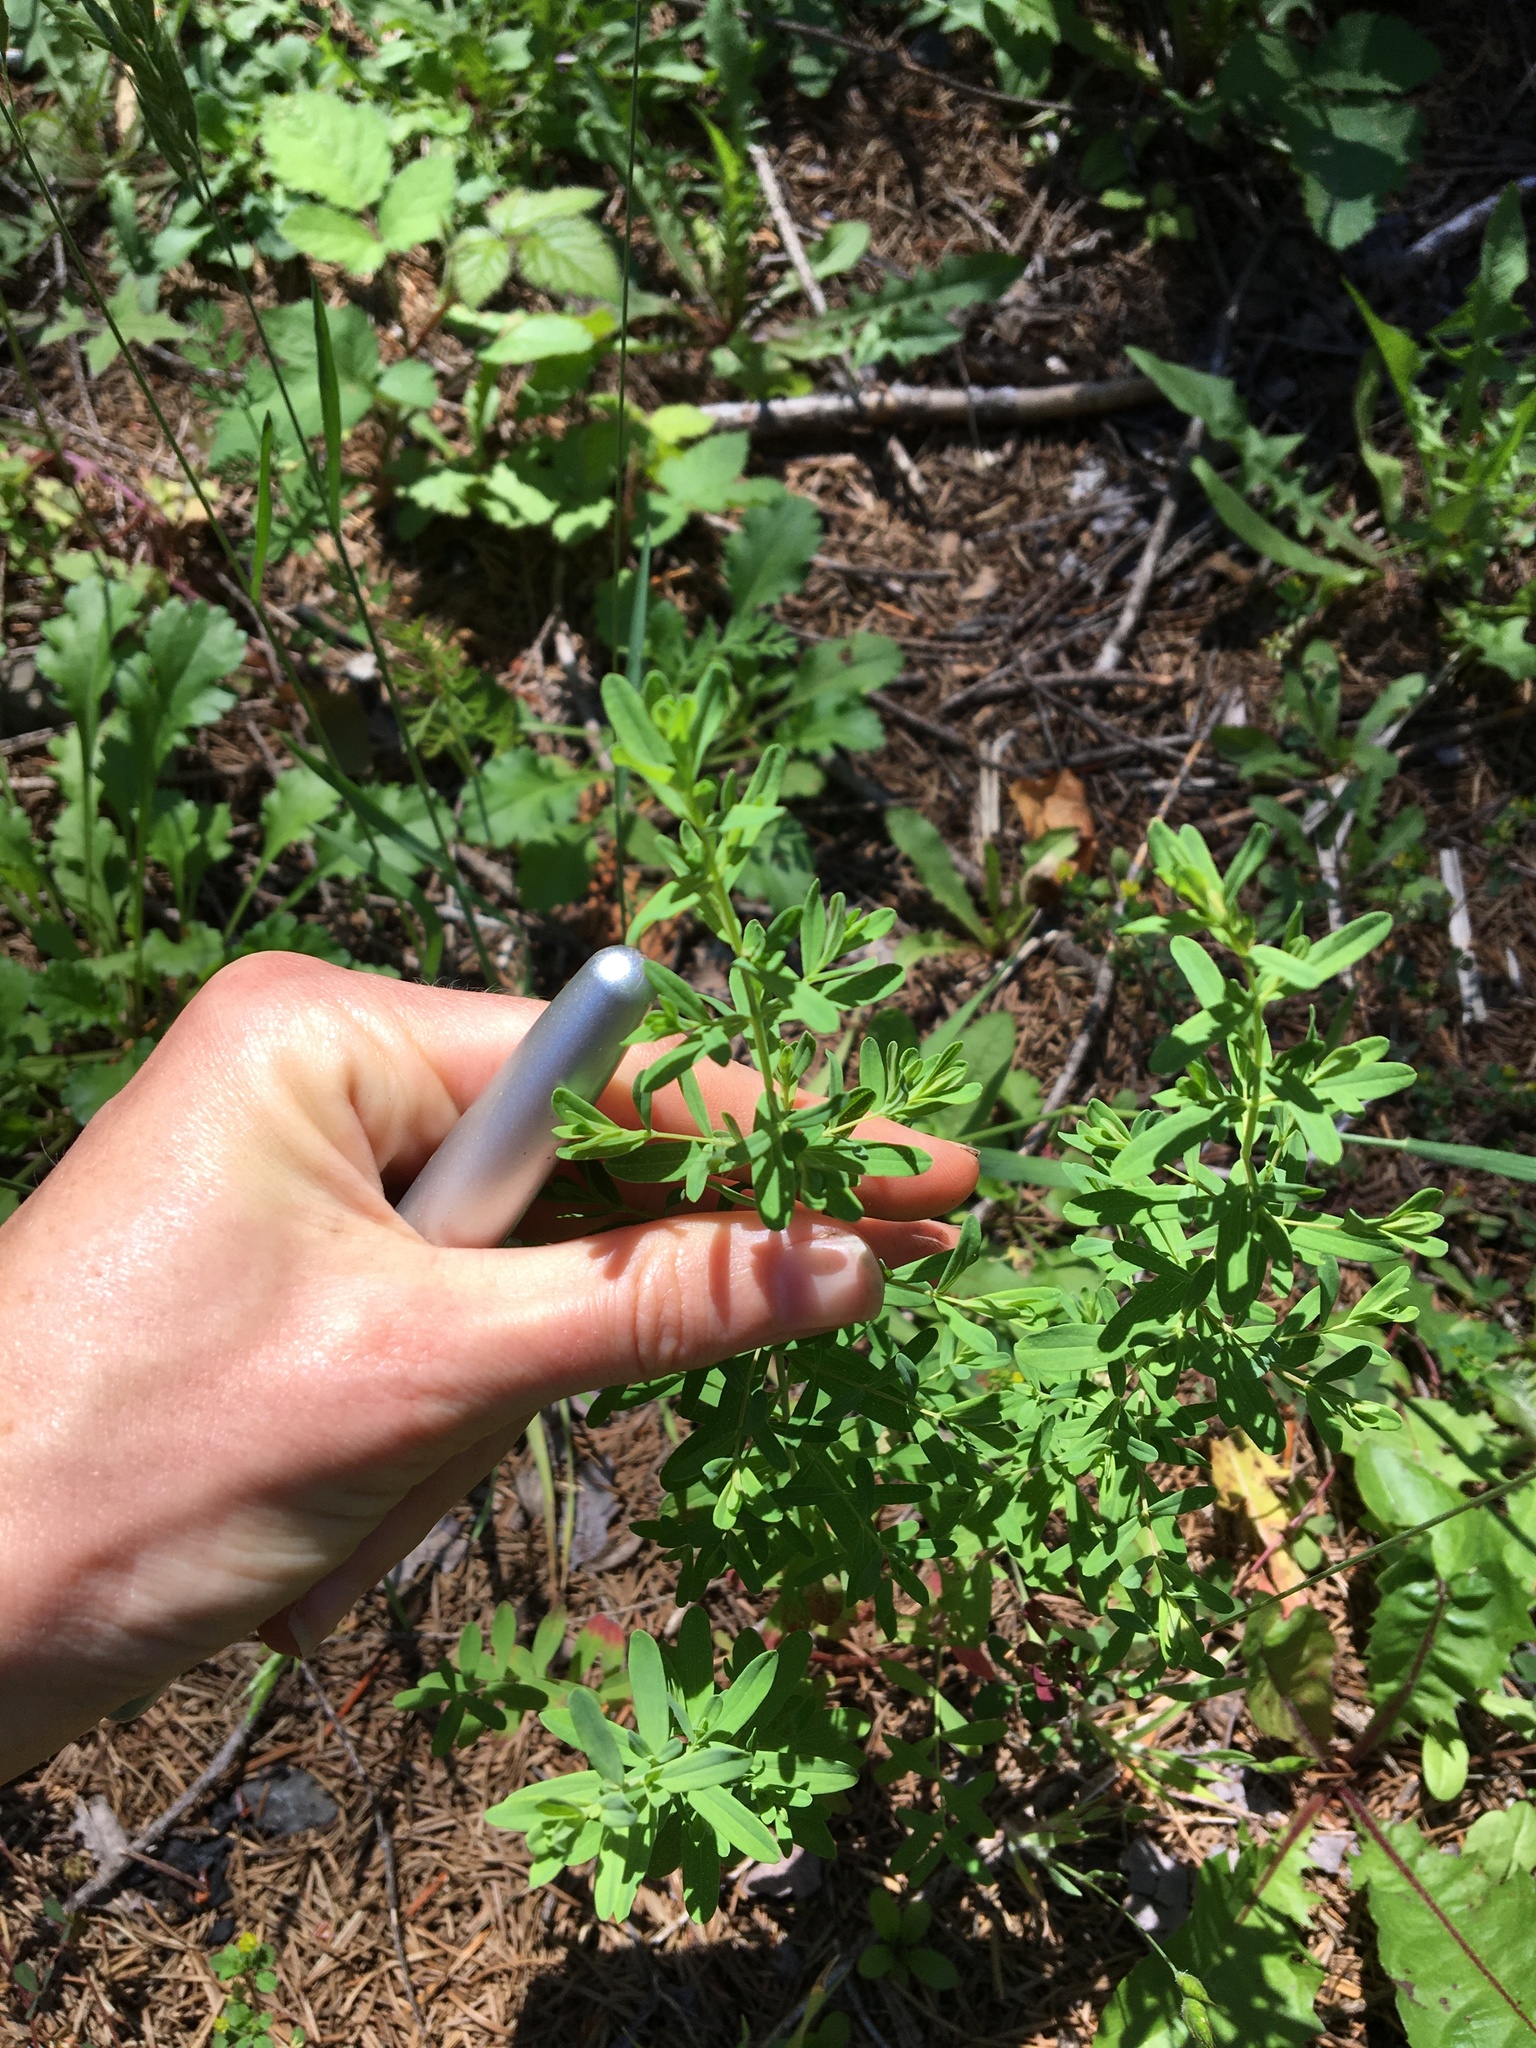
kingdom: Plantae
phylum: Tracheophyta
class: Magnoliopsida
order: Malpighiales
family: Hypericaceae
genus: Hypericum
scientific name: Hypericum perforatum
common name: Common st. johnswort
